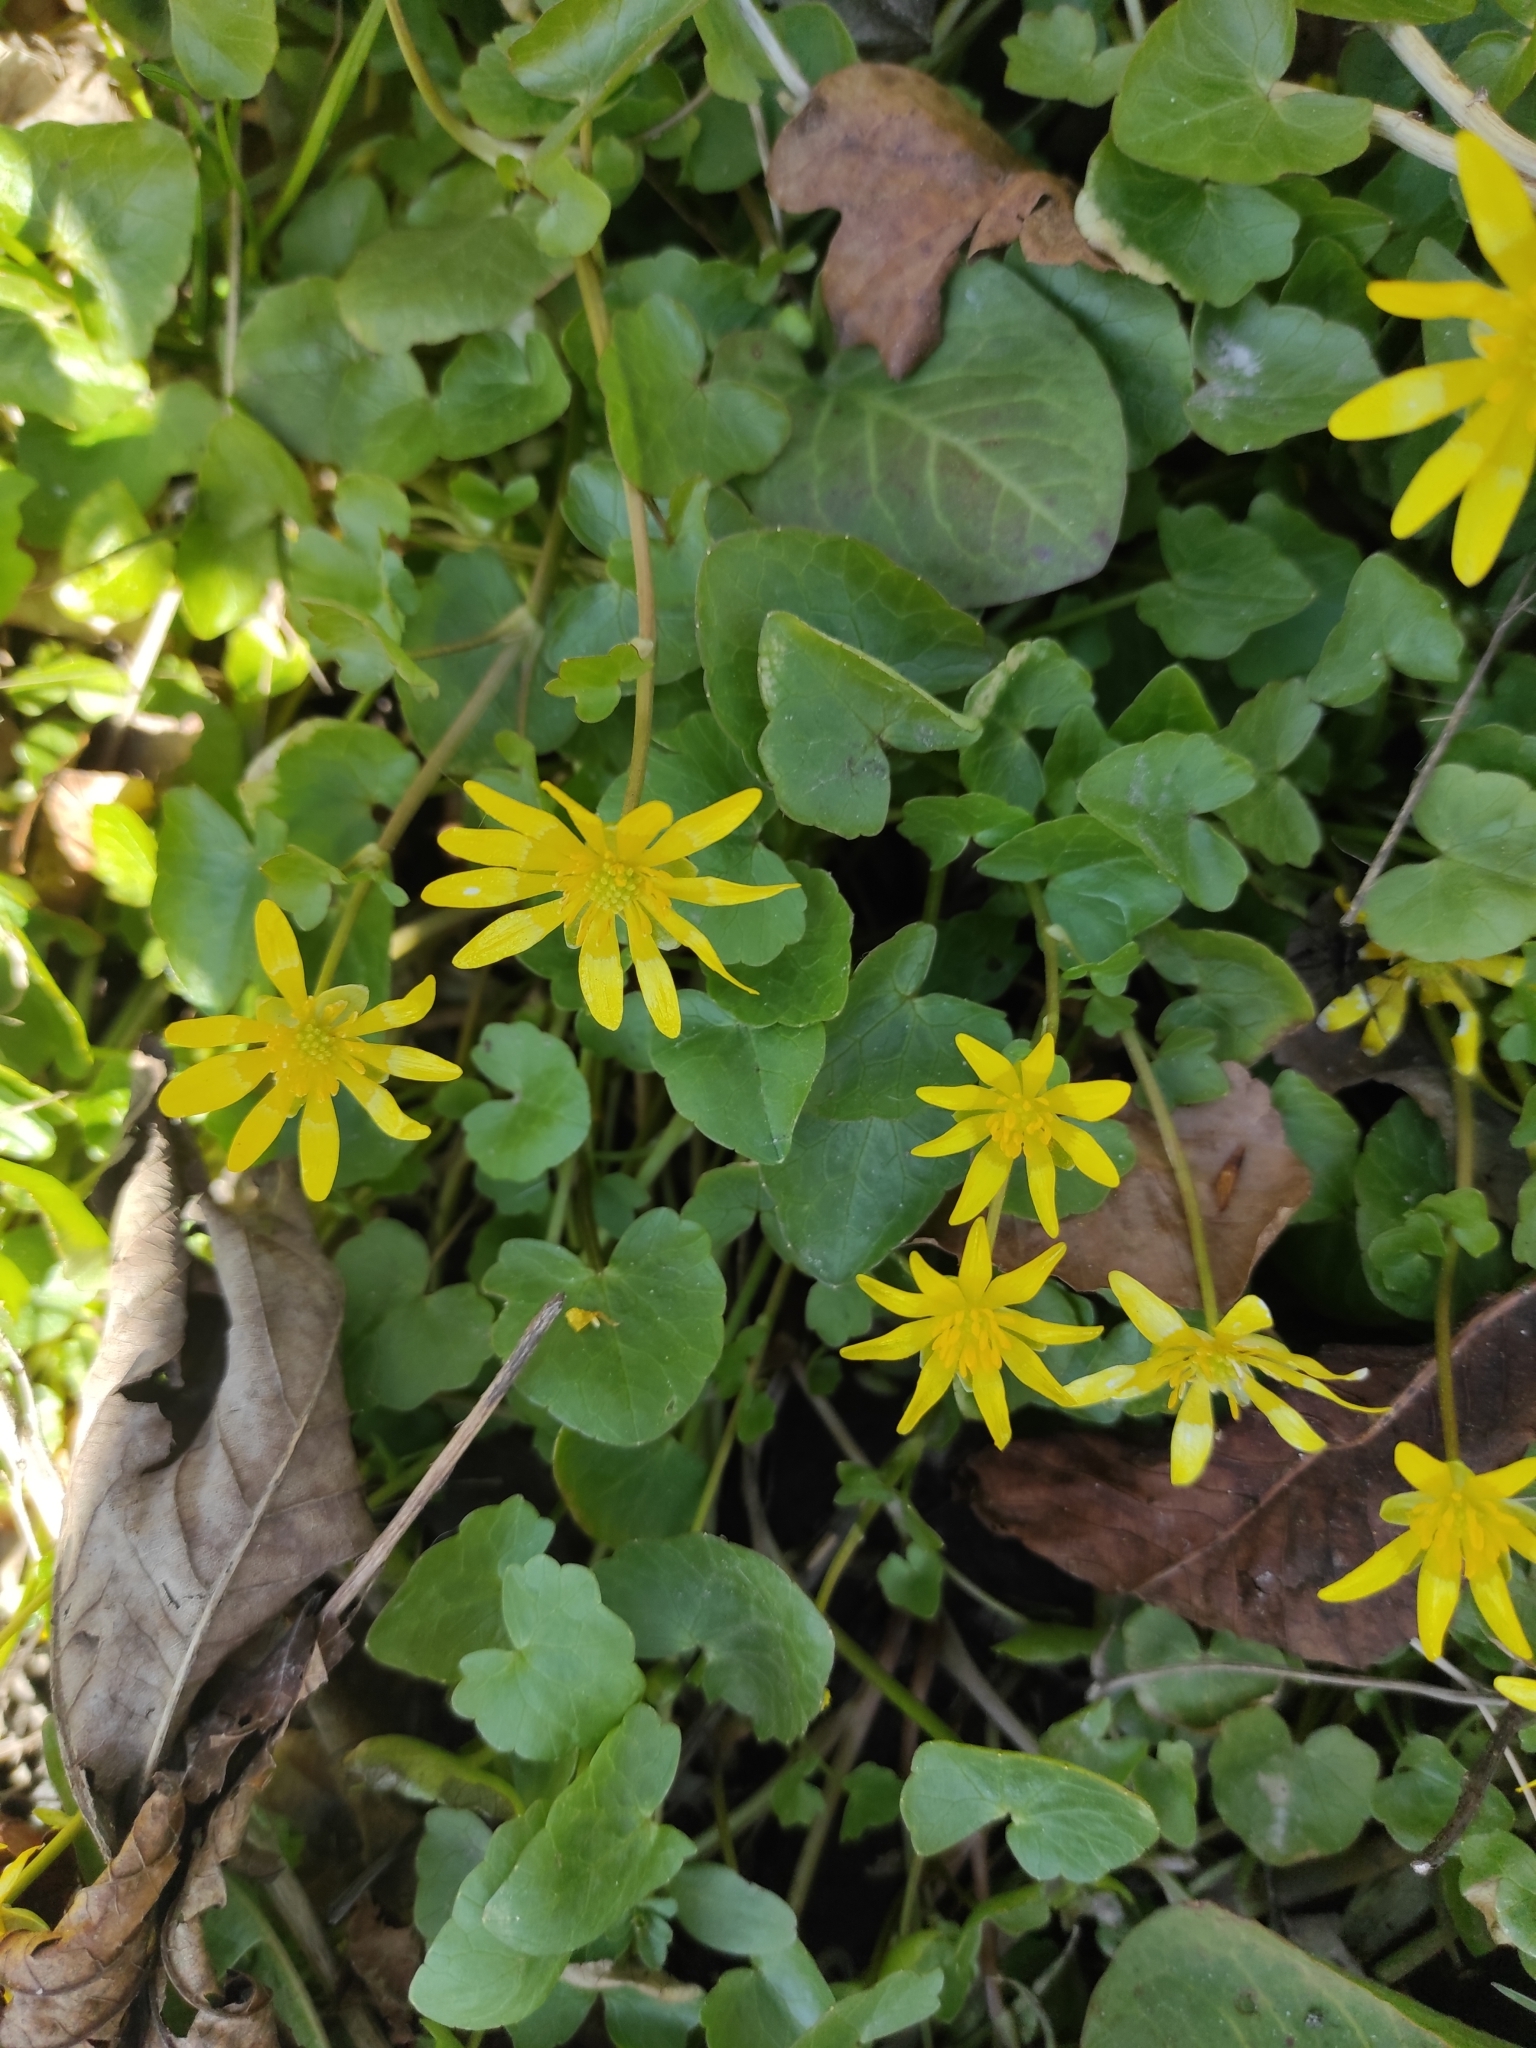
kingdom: Plantae
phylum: Tracheophyta
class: Magnoliopsida
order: Ranunculales
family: Ranunculaceae
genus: Ficaria
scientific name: Ficaria verna
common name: Lesser celandine
